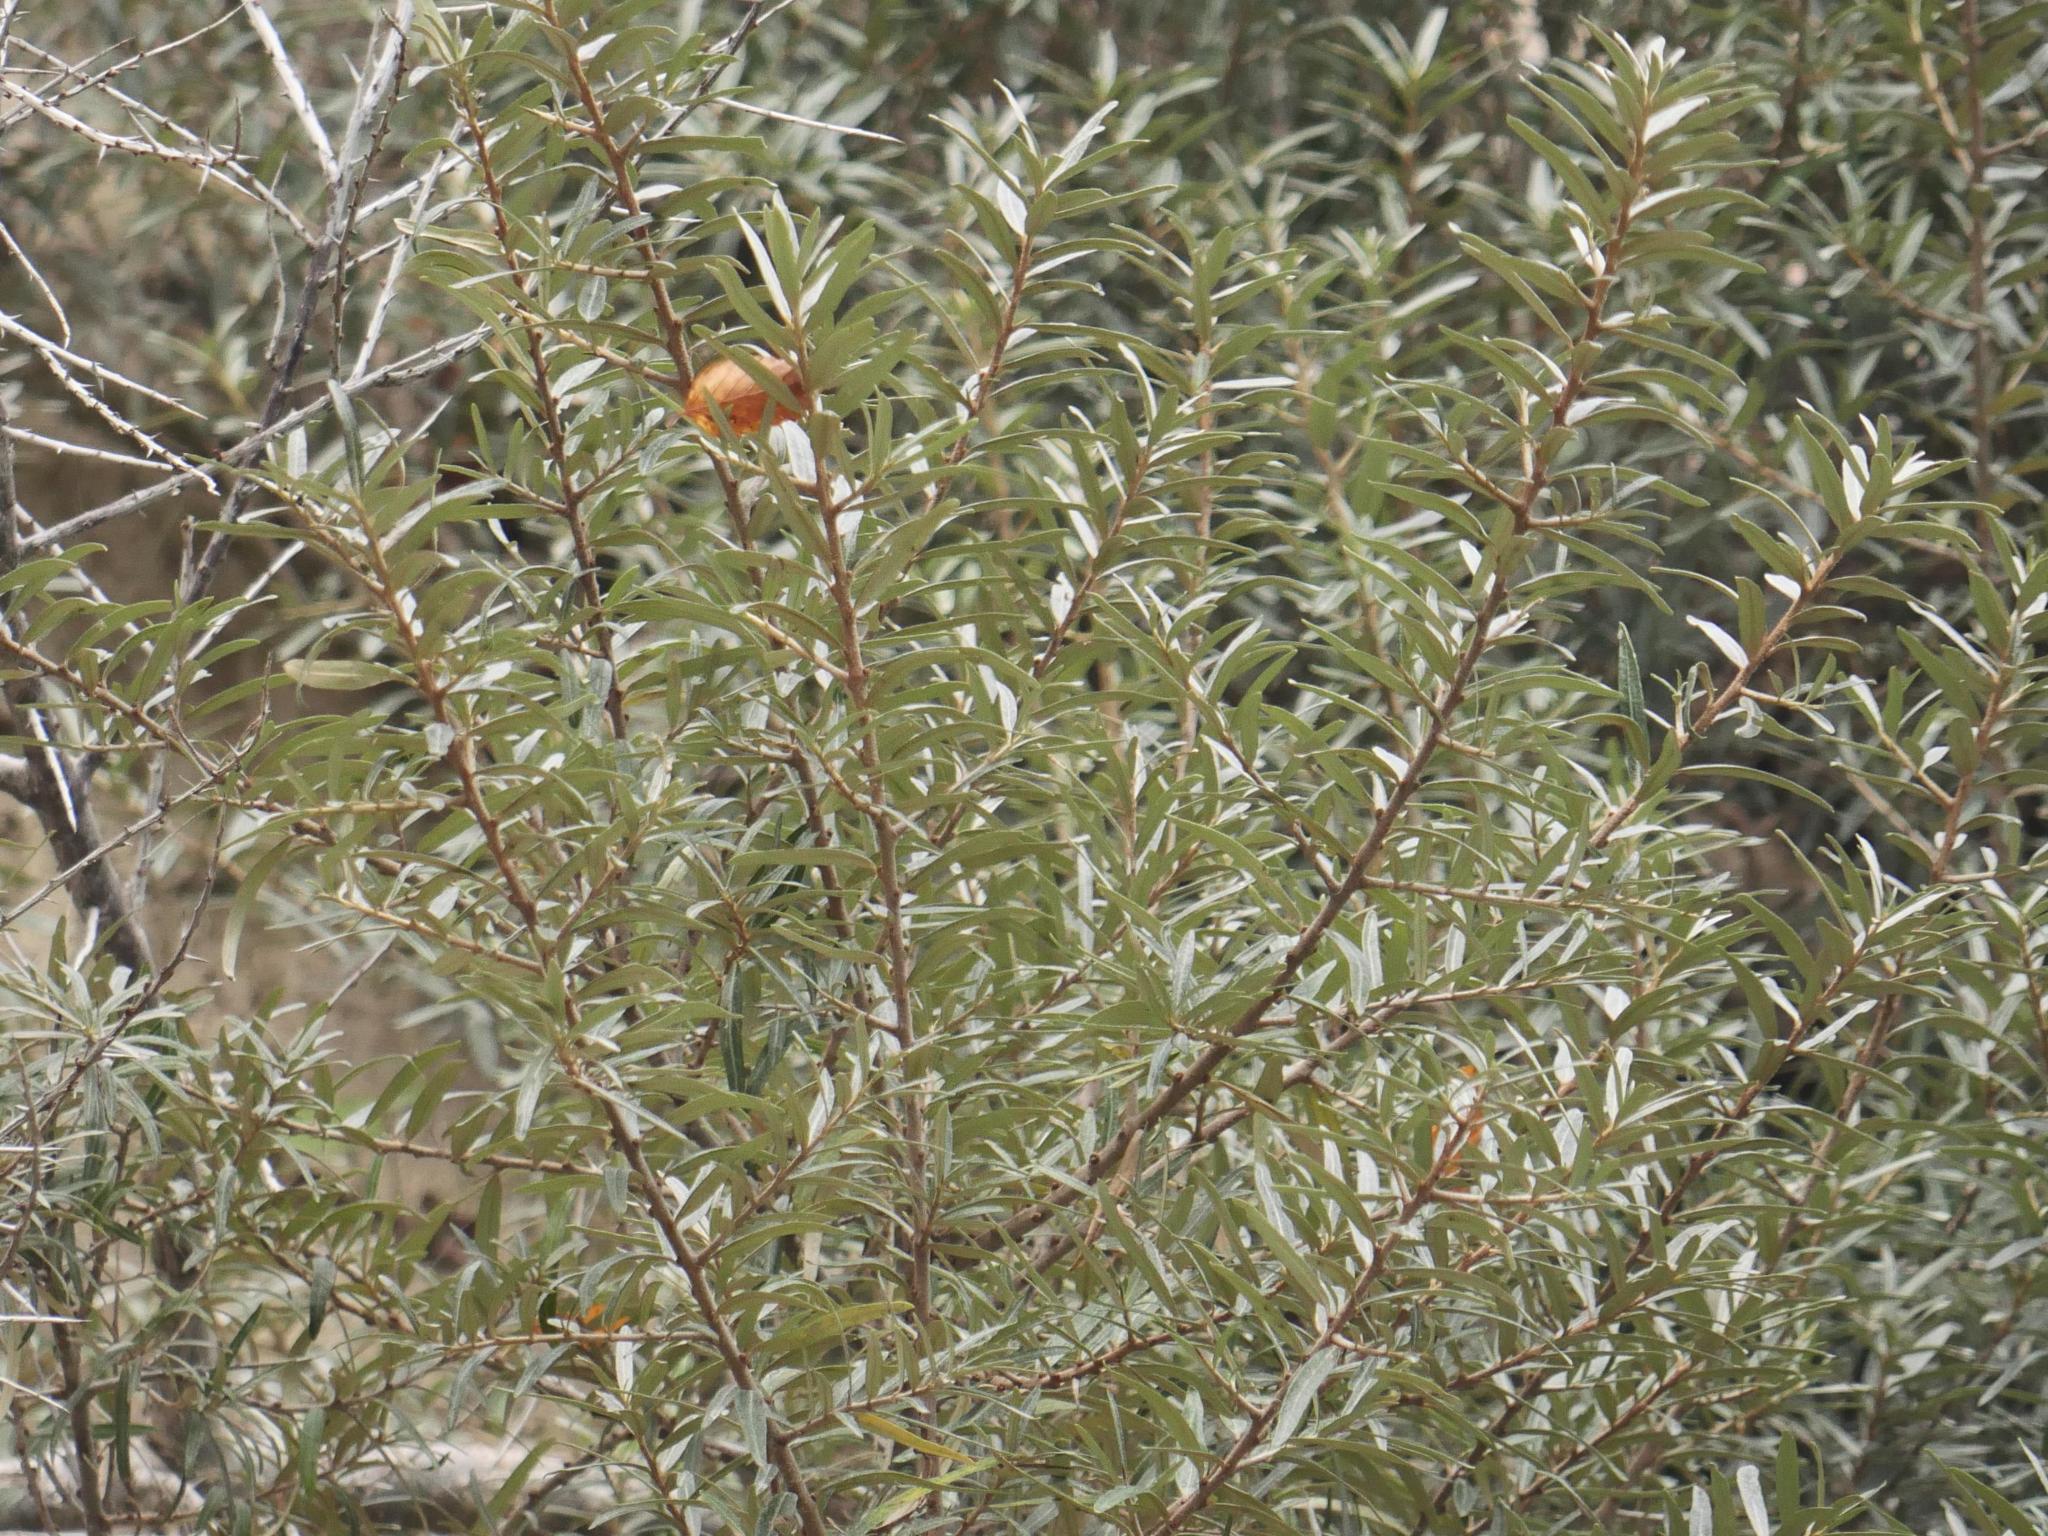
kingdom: Plantae
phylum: Tracheophyta
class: Magnoliopsida
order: Rosales
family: Elaeagnaceae
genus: Hippophae
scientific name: Hippophae rhamnoides
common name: Sea-buckthorn
